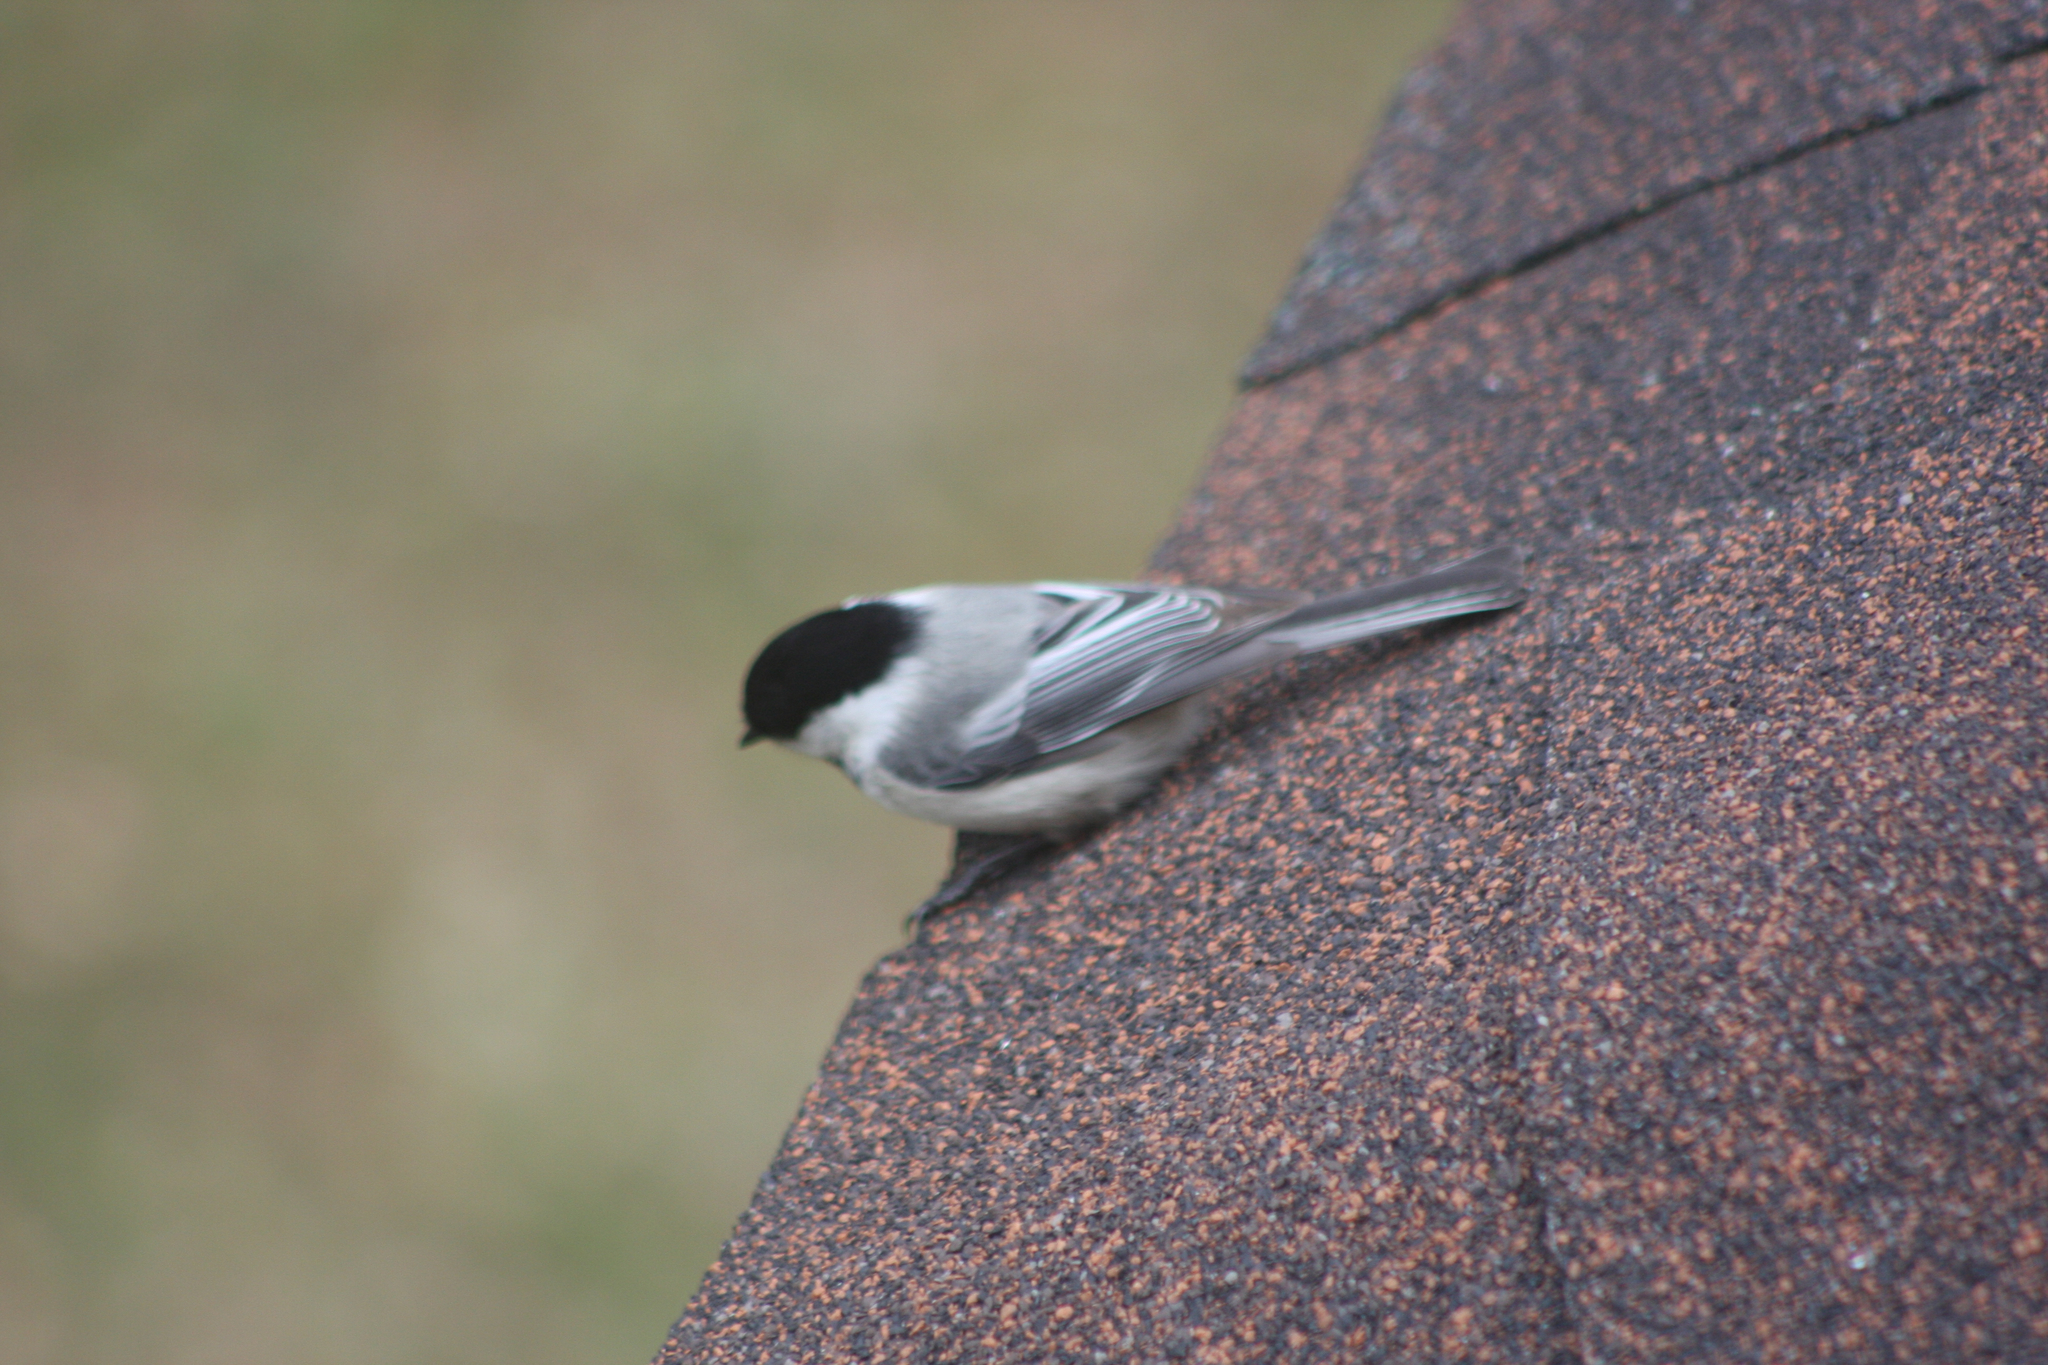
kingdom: Animalia
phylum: Chordata
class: Aves
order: Passeriformes
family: Paridae
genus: Poecile
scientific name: Poecile atricapillus
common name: Black-capped chickadee
